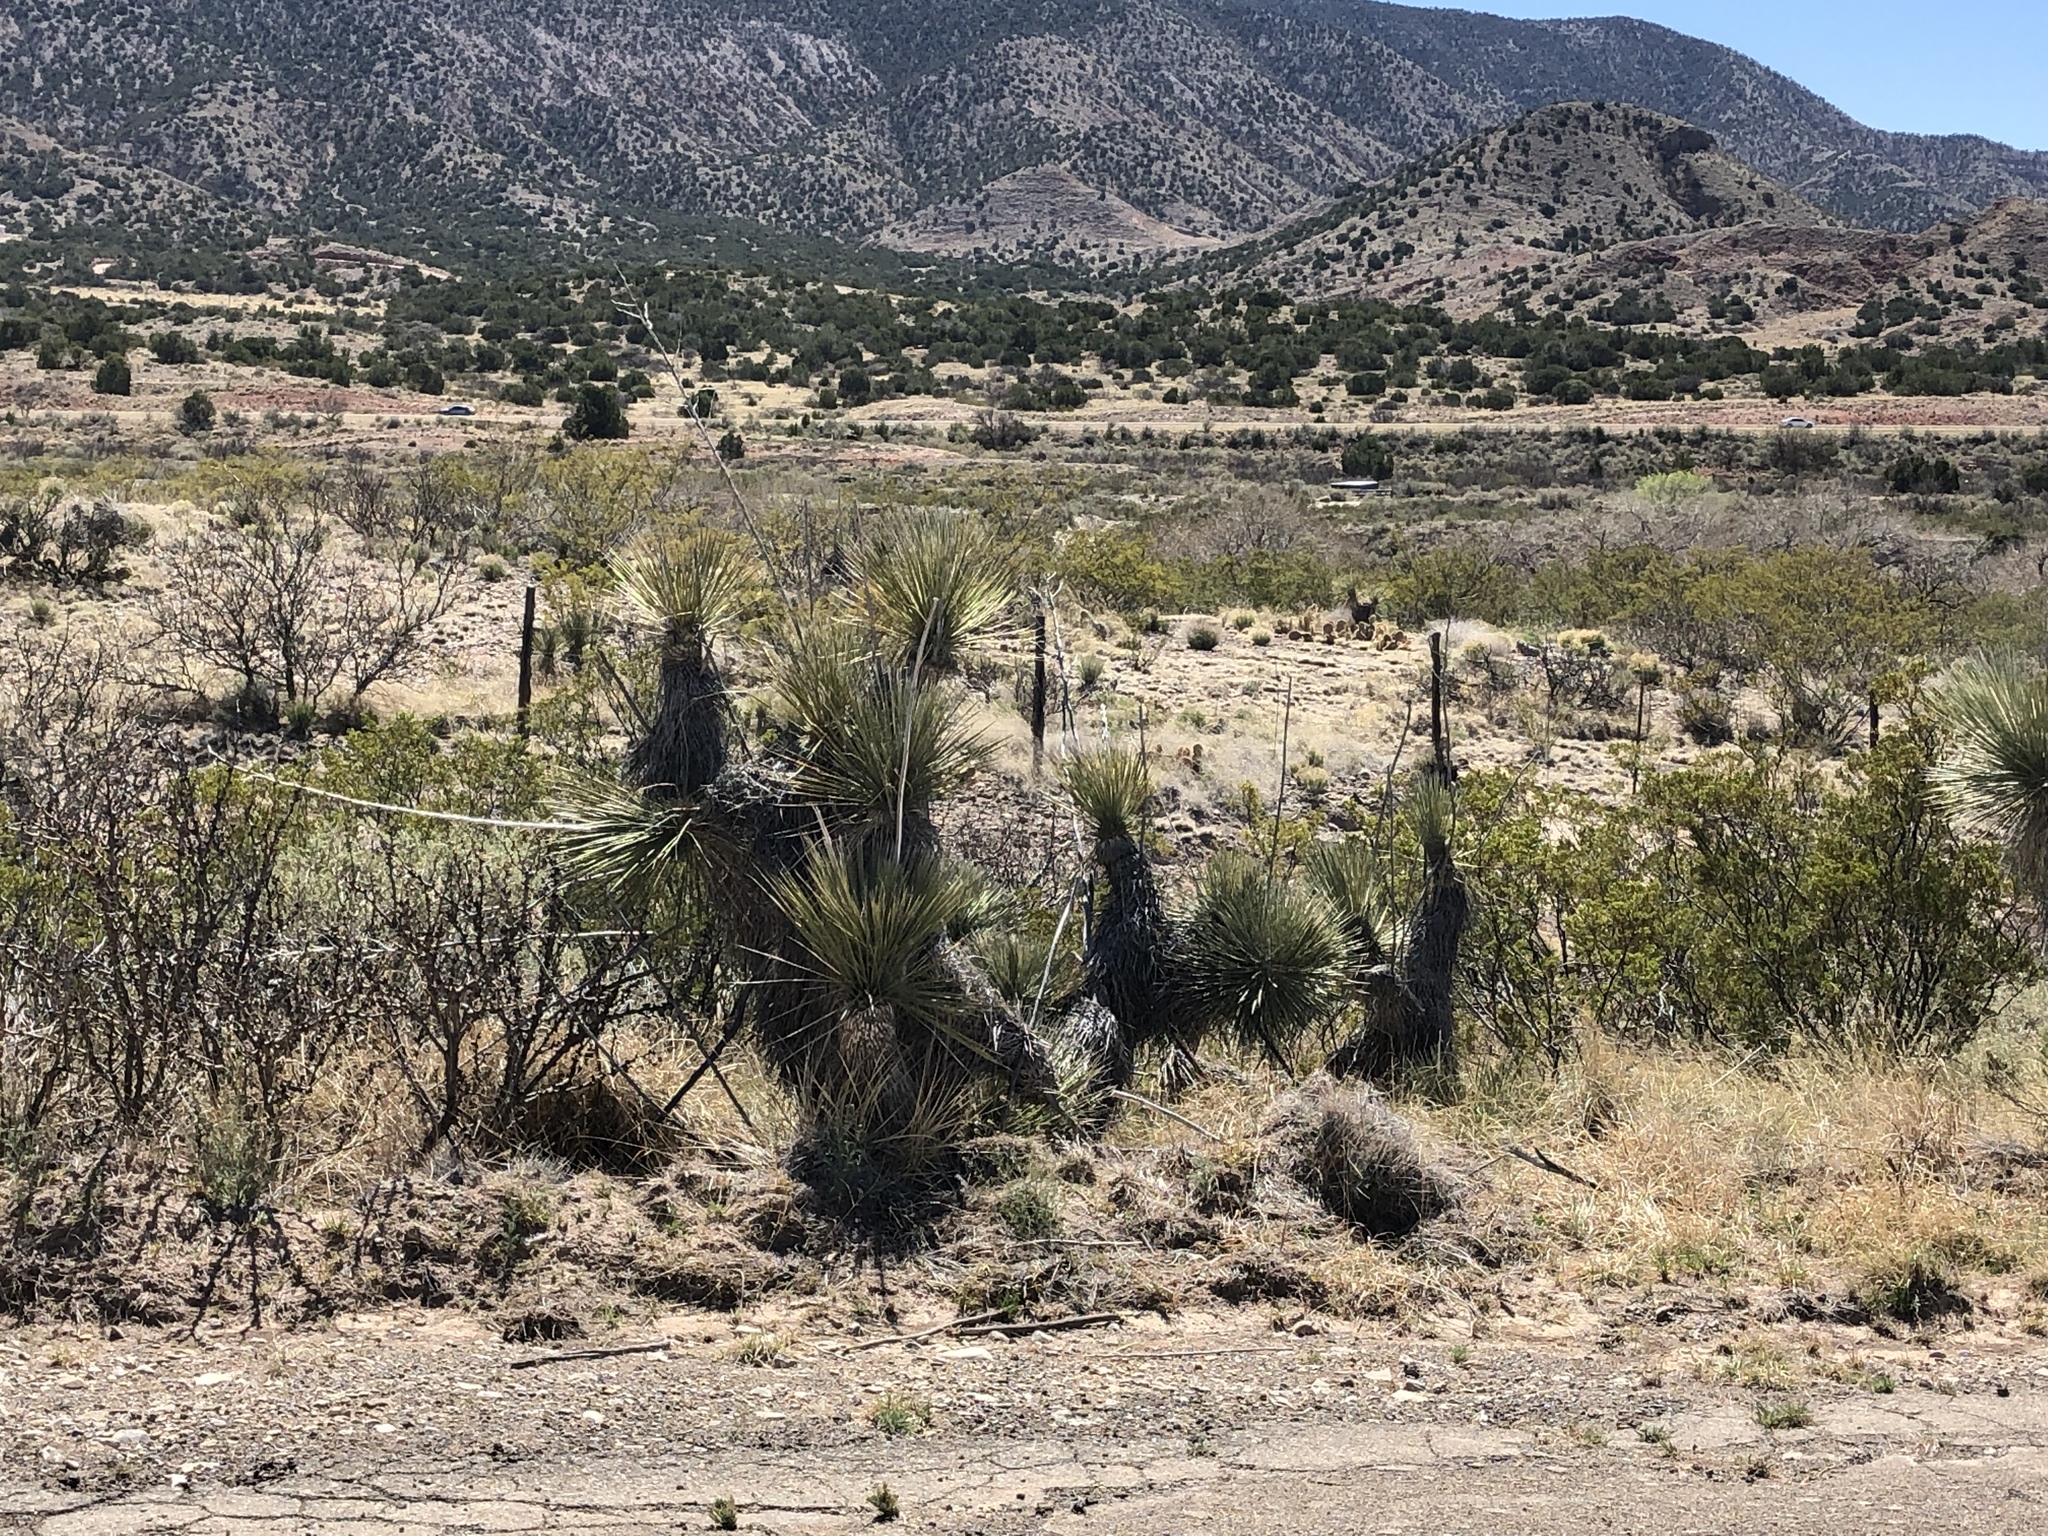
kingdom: Plantae
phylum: Tracheophyta
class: Liliopsida
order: Asparagales
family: Asparagaceae
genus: Yucca
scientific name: Yucca elata
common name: Palmella
